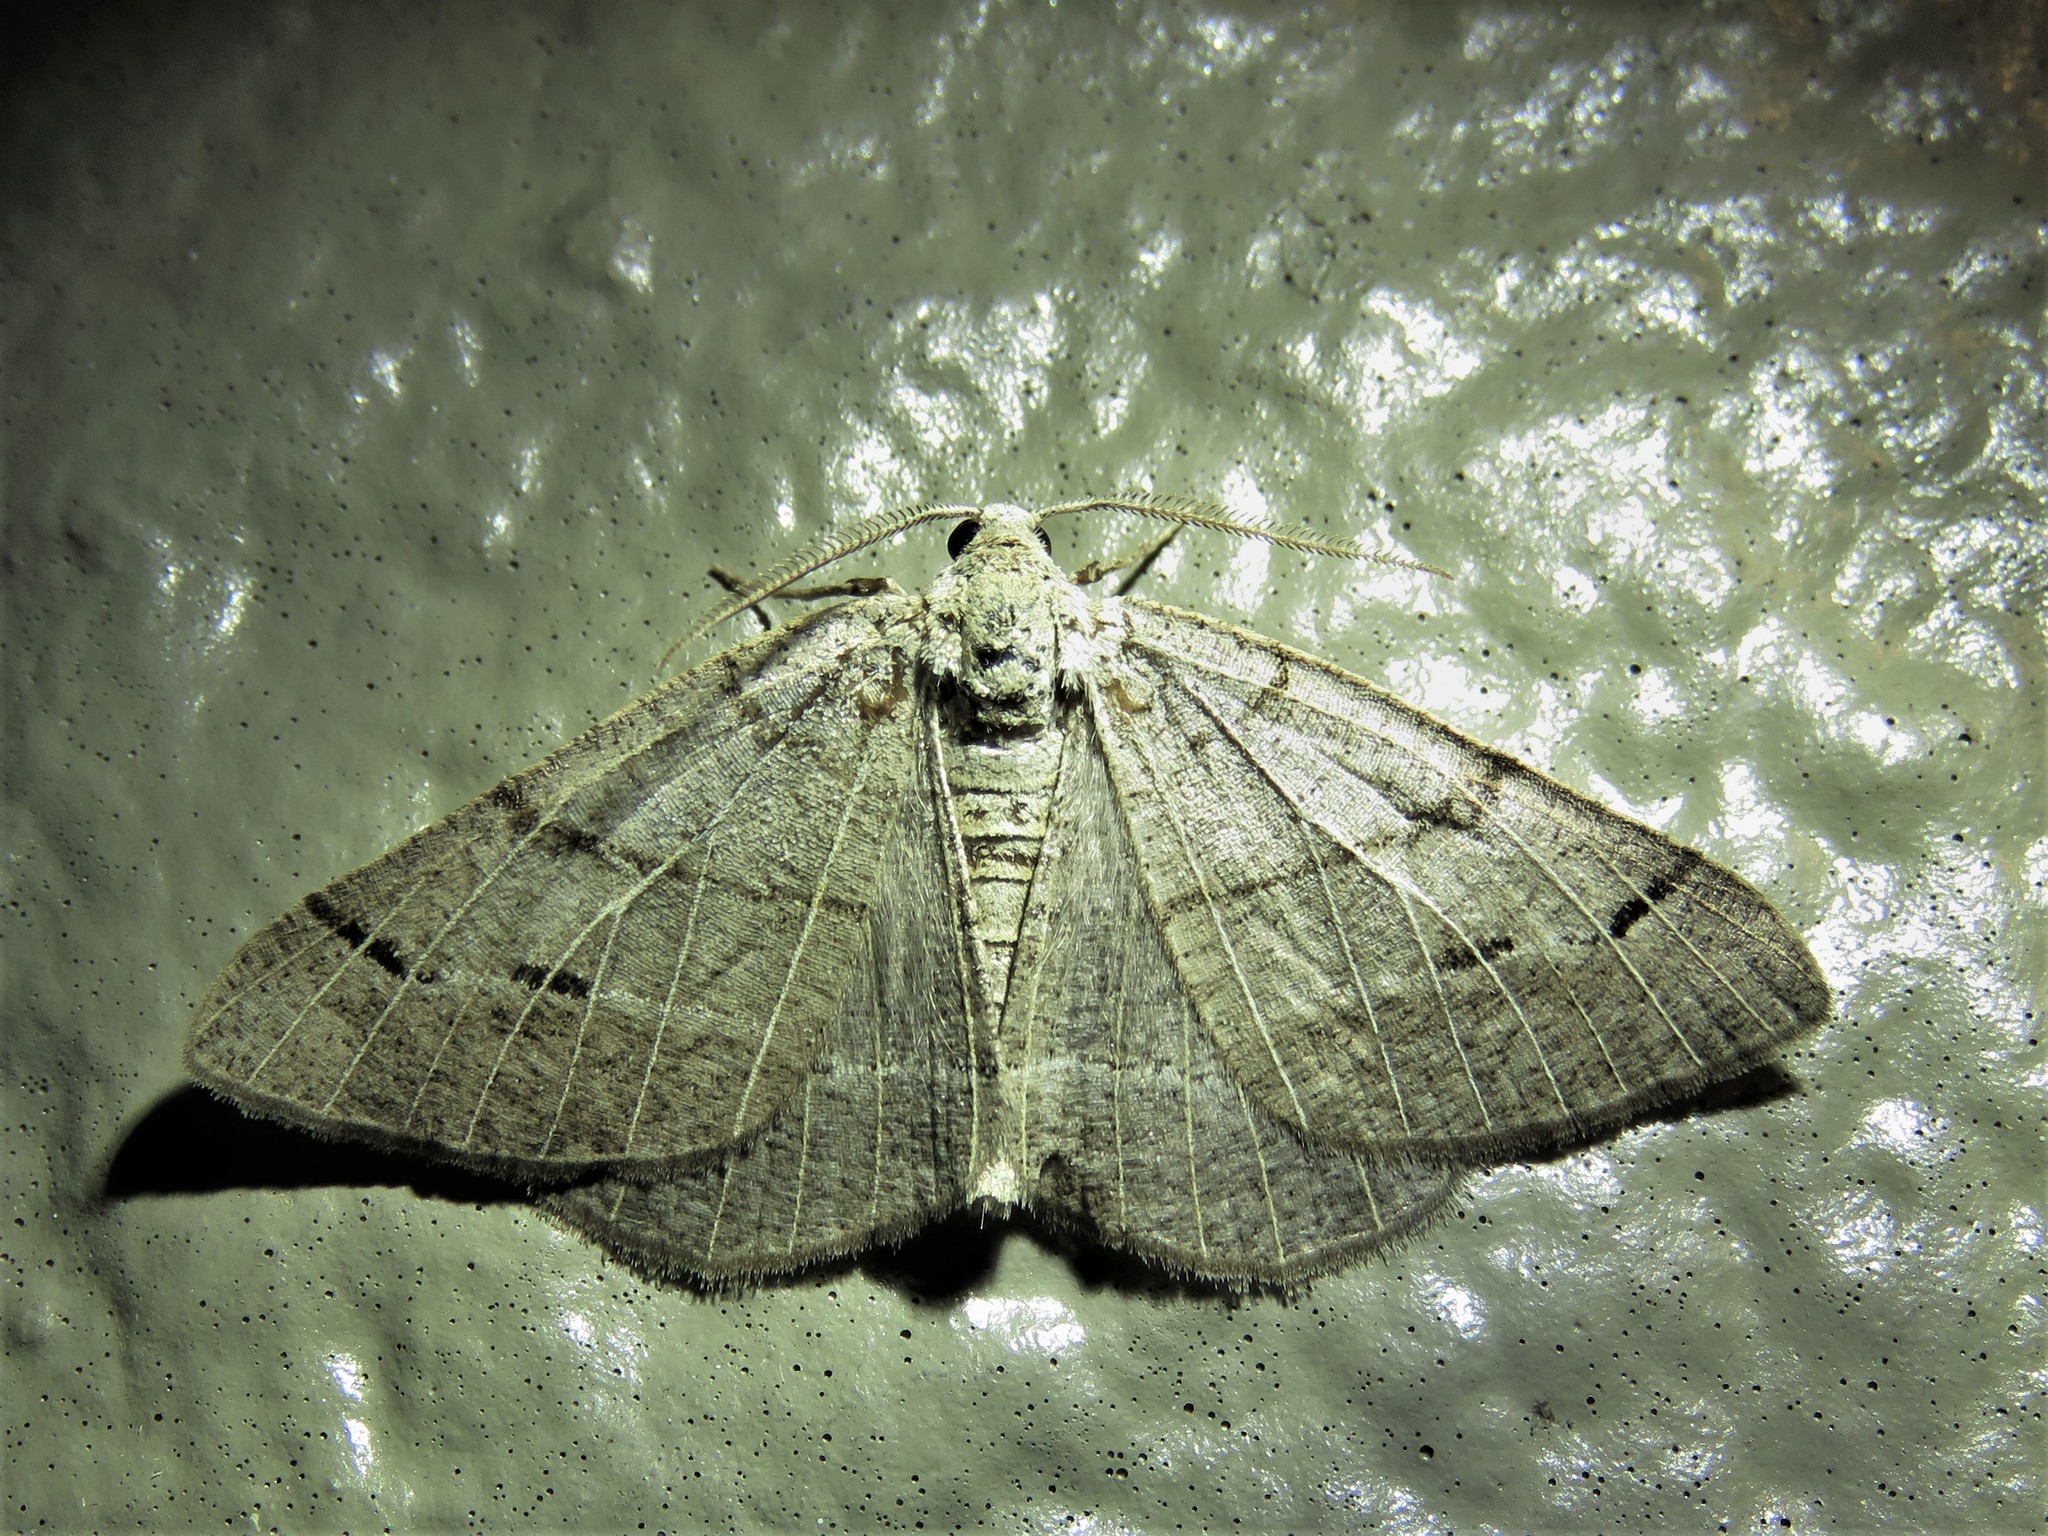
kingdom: Animalia
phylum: Arthropoda
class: Insecta
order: Lepidoptera
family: Geometridae
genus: Isturgia
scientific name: Isturgia dislocaria
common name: Pale-viened enconista
